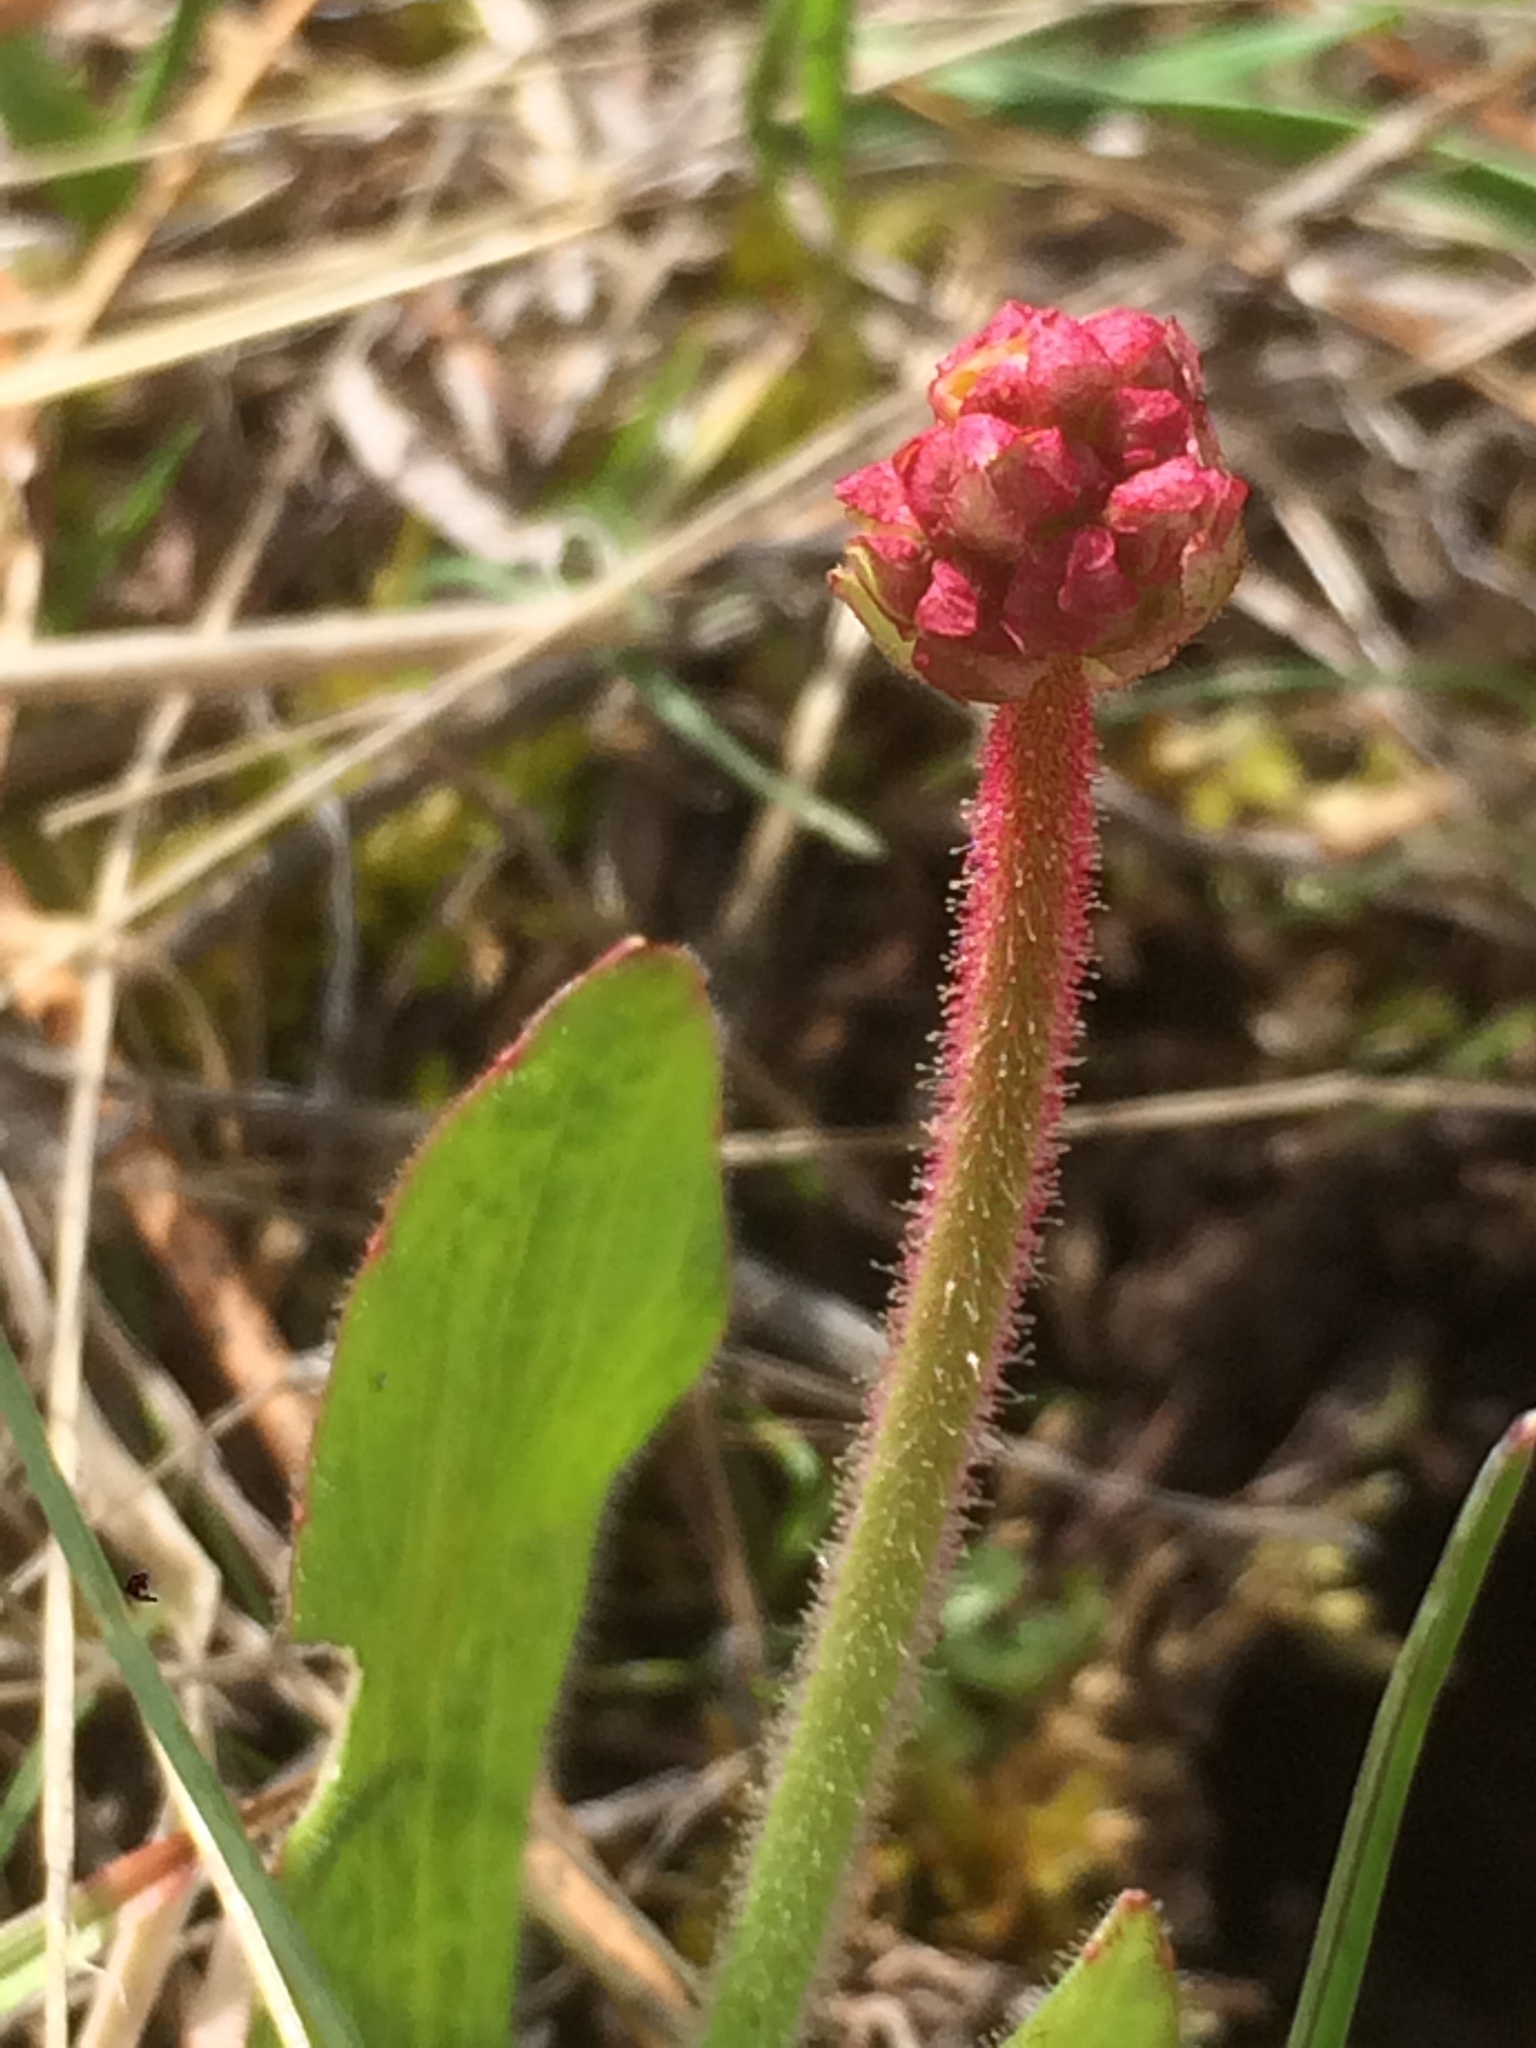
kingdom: Plantae
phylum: Tracheophyta
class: Magnoliopsida
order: Saxifragales
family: Saxifragaceae
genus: Micranthes
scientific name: Micranthes integrifolia
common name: Wholeleaf saxifrage
